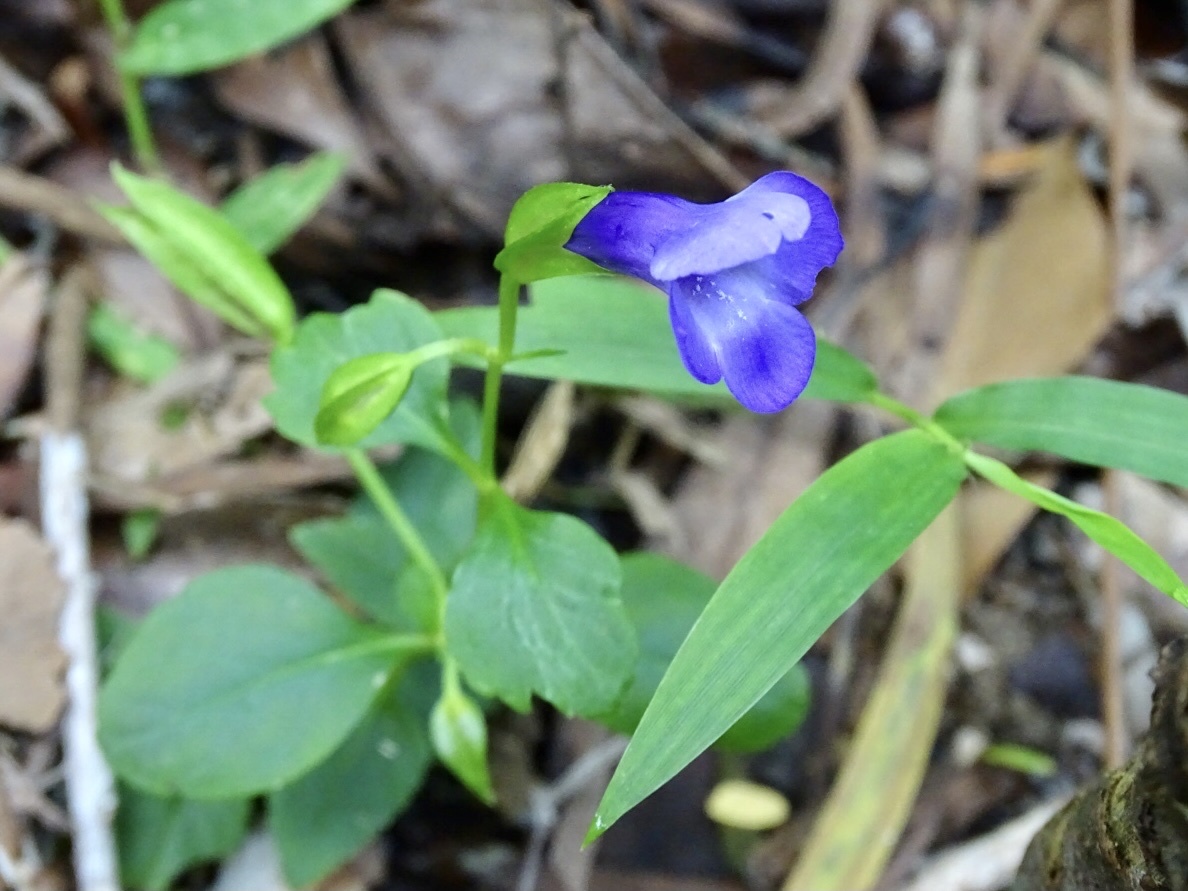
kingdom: Plantae
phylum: Tracheophyta
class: Magnoliopsida
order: Lamiales
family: Linderniaceae
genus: Torenia
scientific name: Torenia concolor
